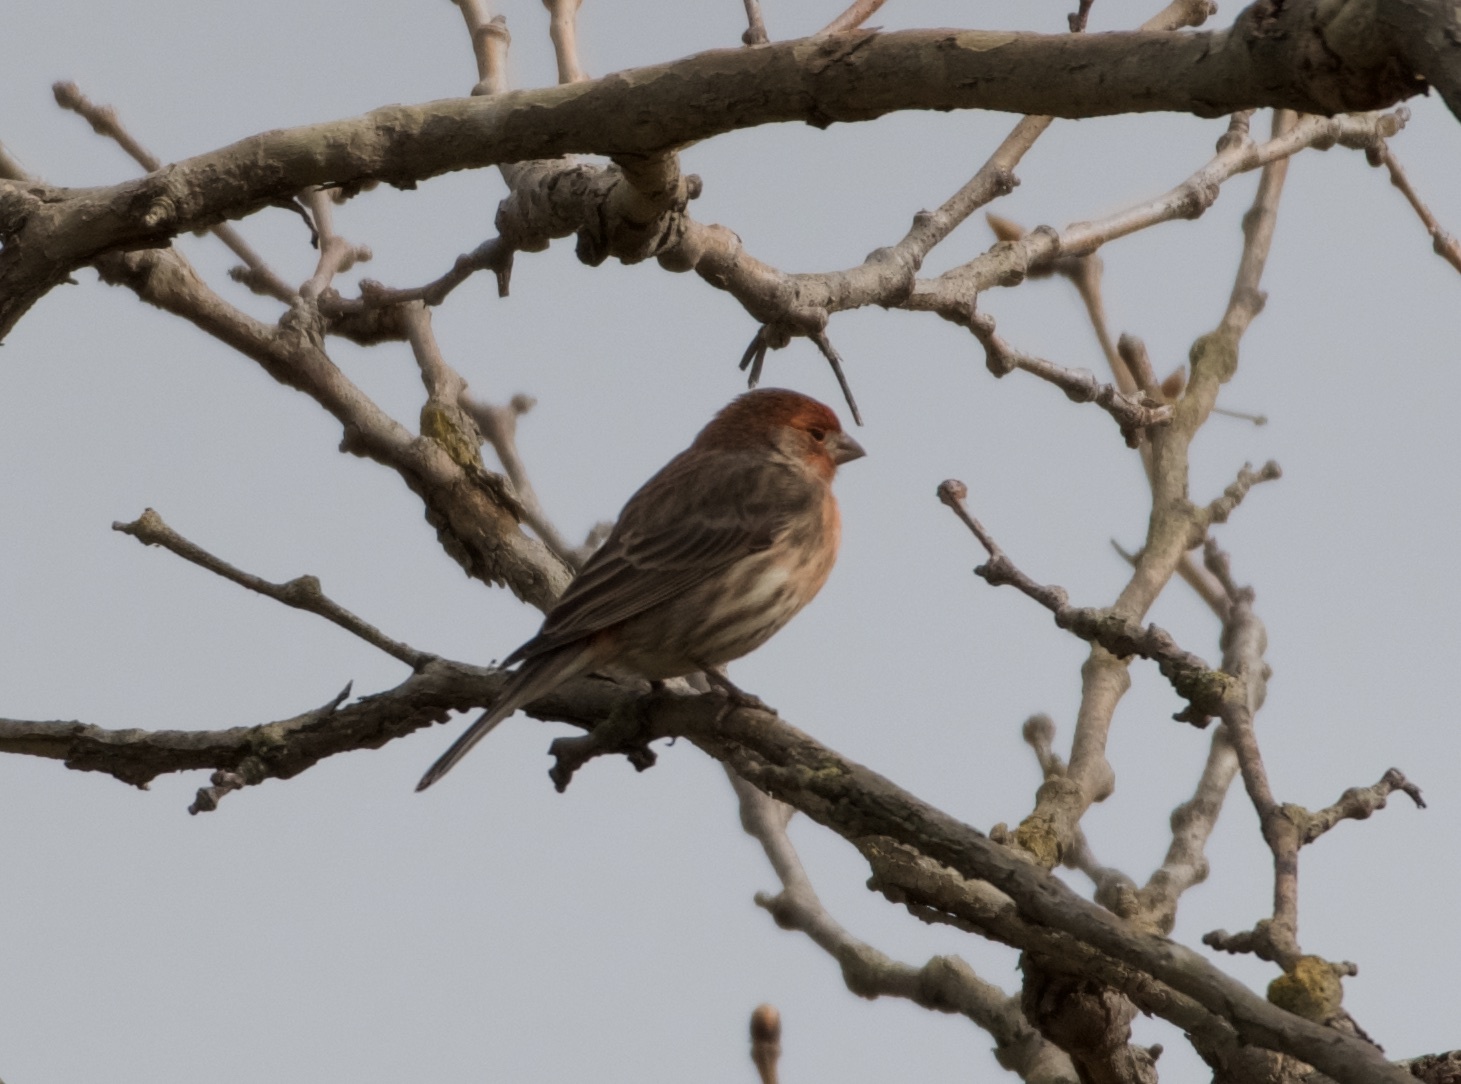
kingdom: Animalia
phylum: Chordata
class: Aves
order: Passeriformes
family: Fringillidae
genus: Haemorhous
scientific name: Haemorhous mexicanus
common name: House finch
